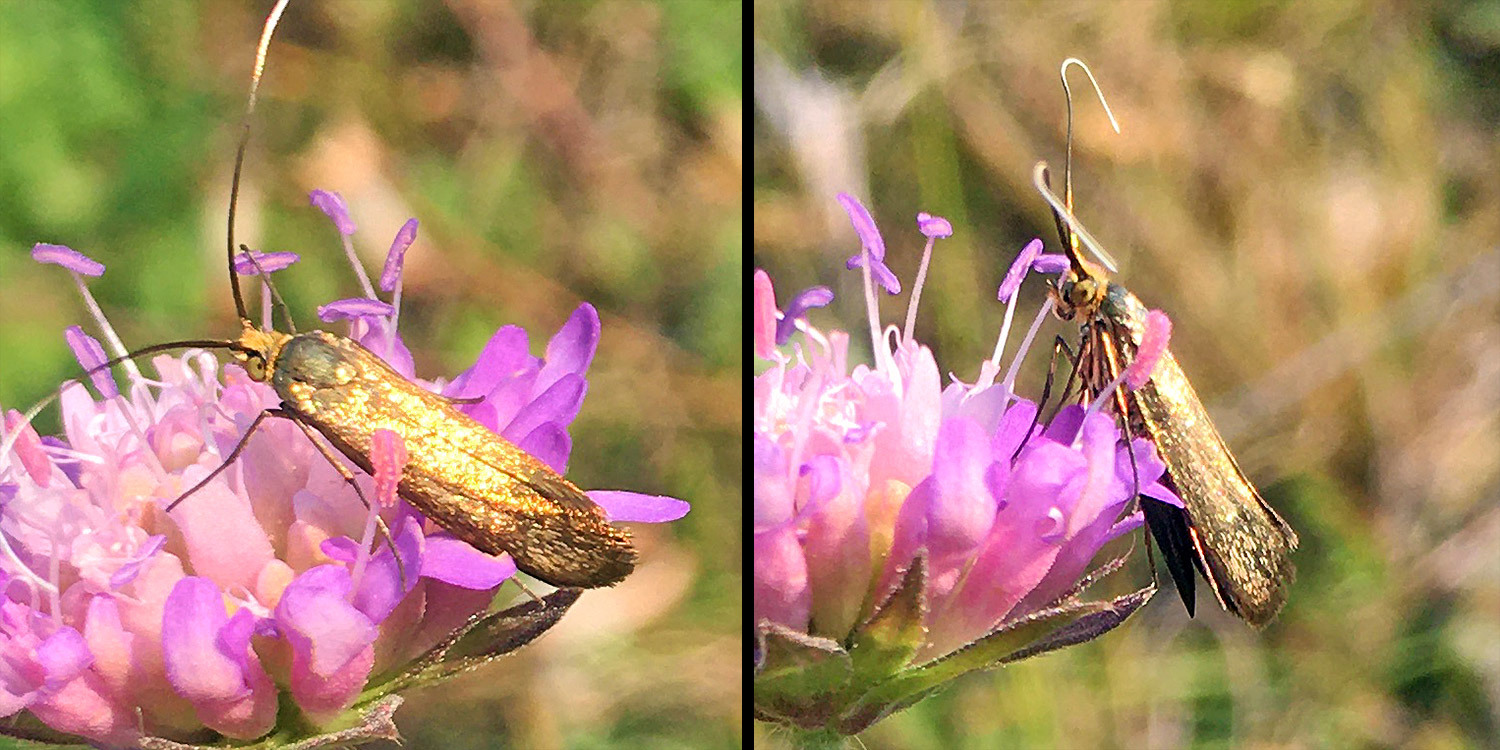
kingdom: Animalia
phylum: Arthropoda
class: Insecta
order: Lepidoptera
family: Adelidae
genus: Nemophora
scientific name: Nemophora metallica
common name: Brassy long-horn
